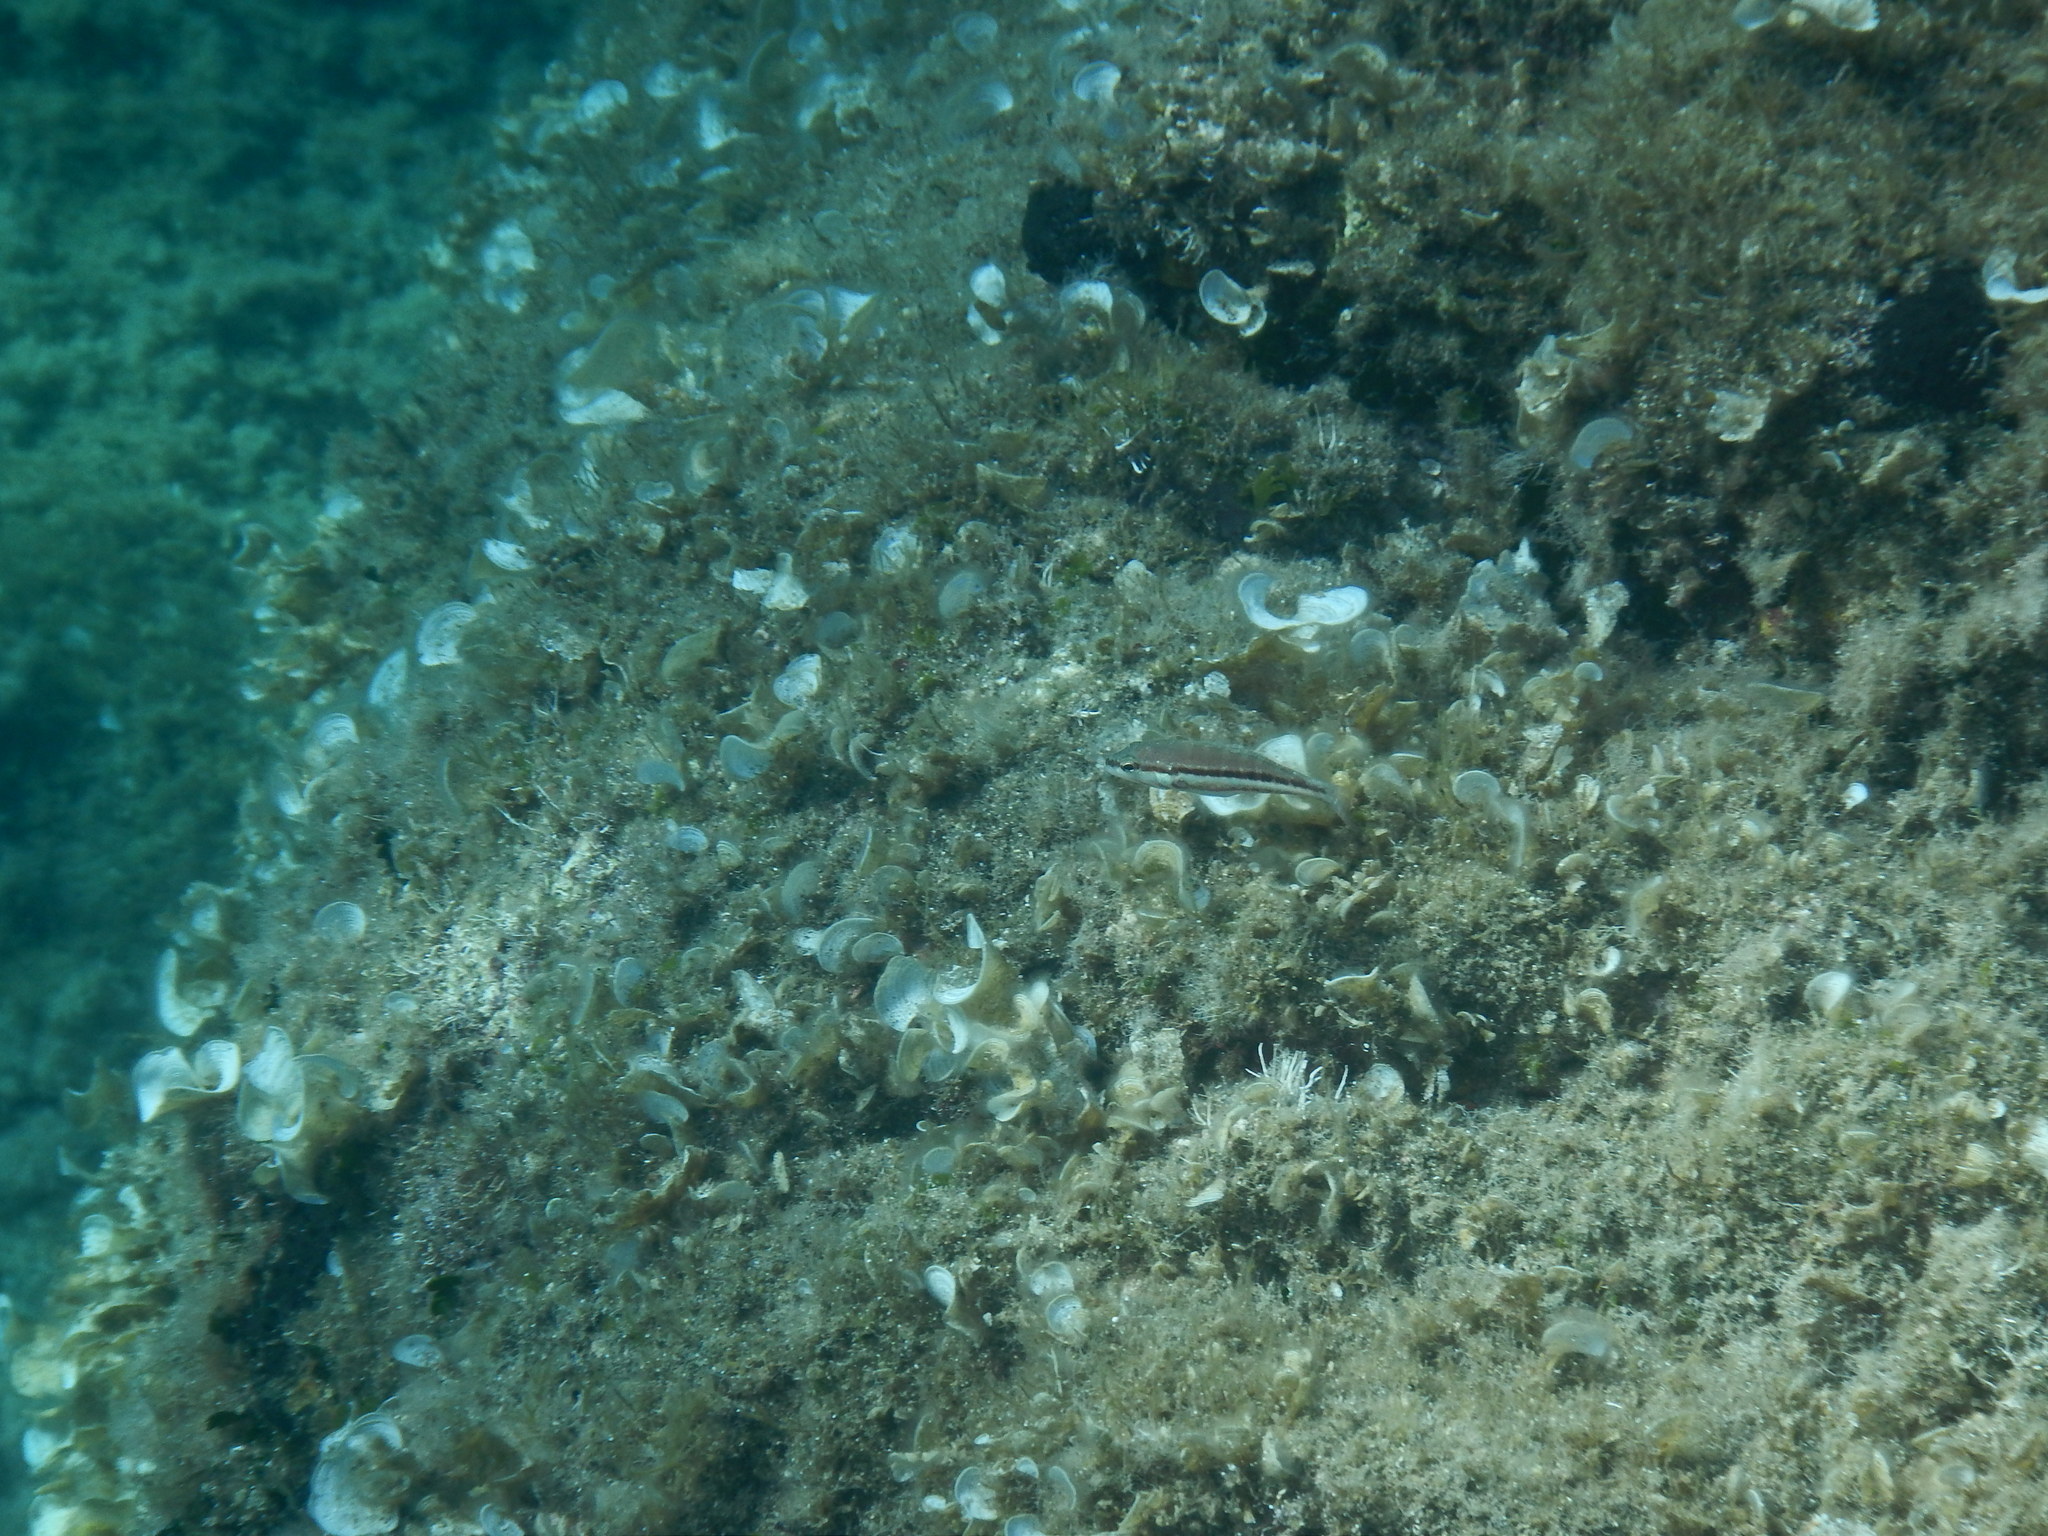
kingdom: Animalia
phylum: Chordata
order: Perciformes
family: Serranidae
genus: Serranus
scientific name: Serranus cabrilla
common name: Comber
